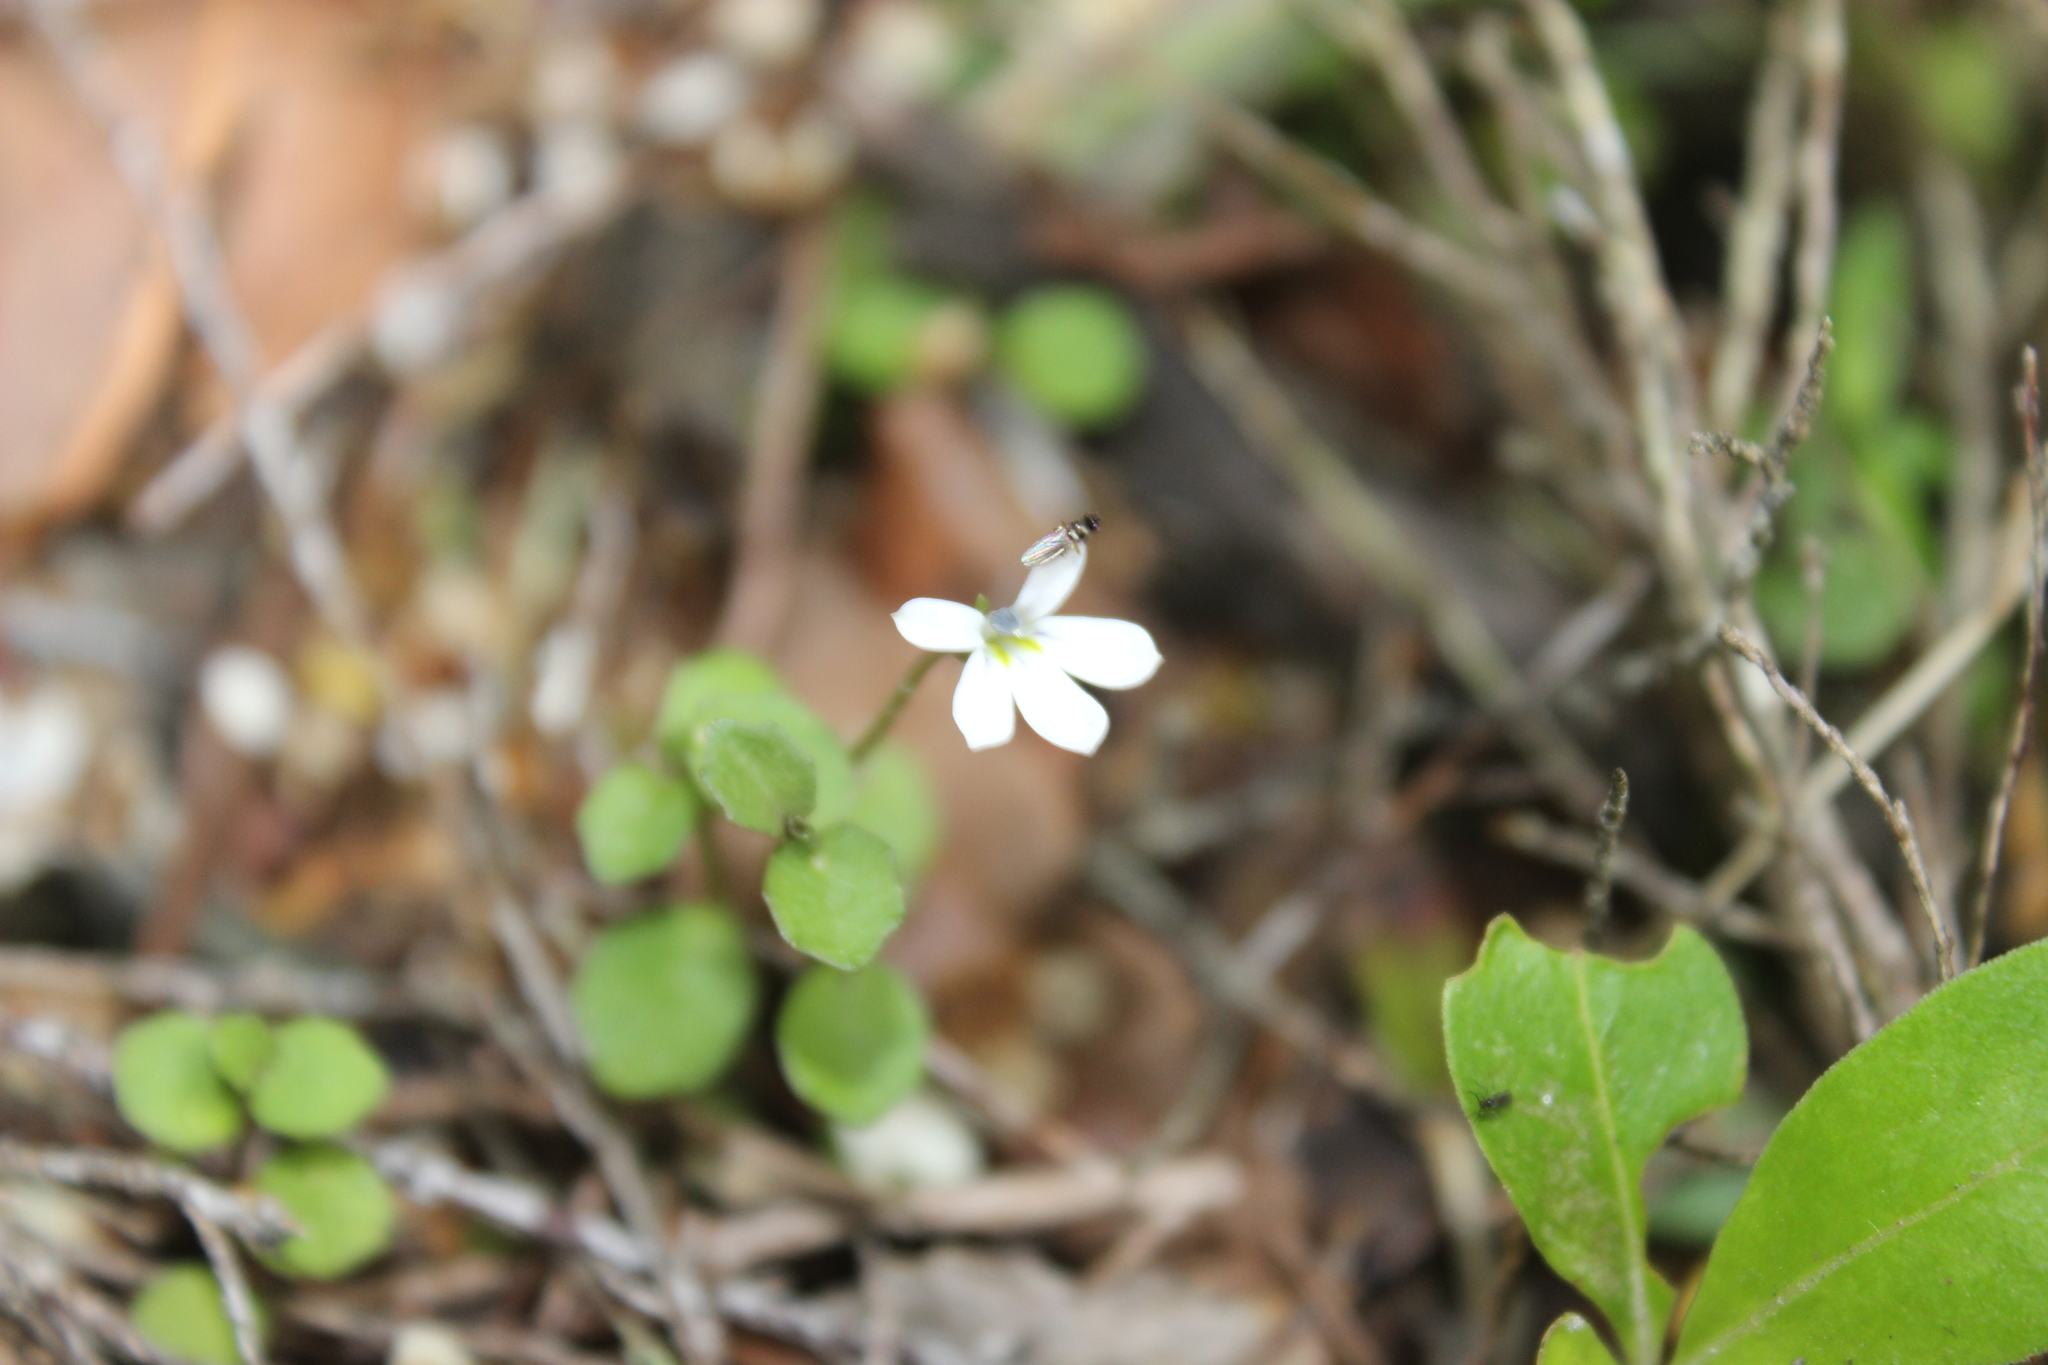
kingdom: Plantae
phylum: Tracheophyta
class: Magnoliopsida
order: Asterales
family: Campanulaceae
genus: Lobelia
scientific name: Lobelia angulata
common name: Lawn lobelia
